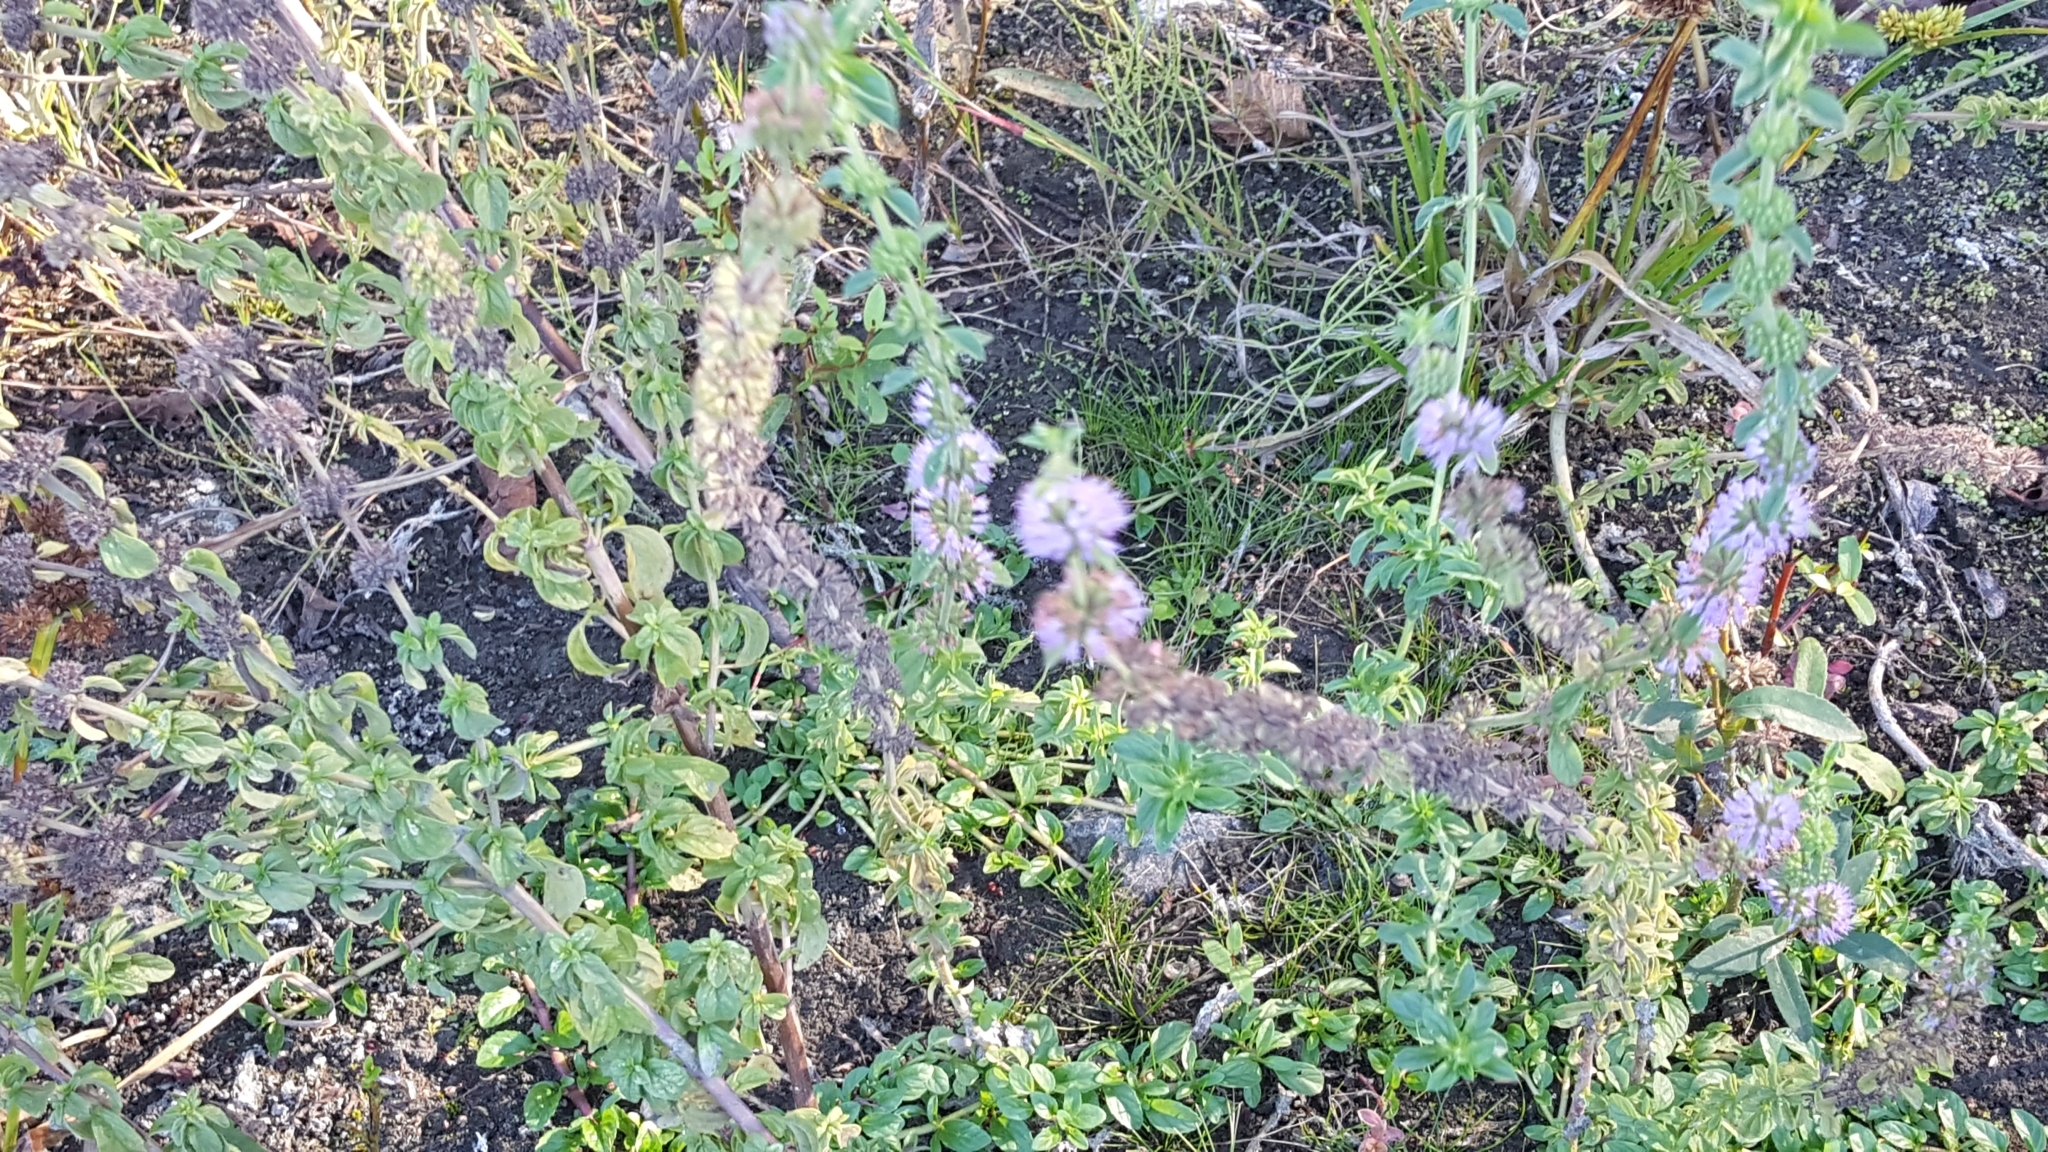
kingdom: Plantae
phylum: Tracheophyta
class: Magnoliopsida
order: Lamiales
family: Lamiaceae
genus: Mentha
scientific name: Mentha pulegium
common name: Pennyroyal
